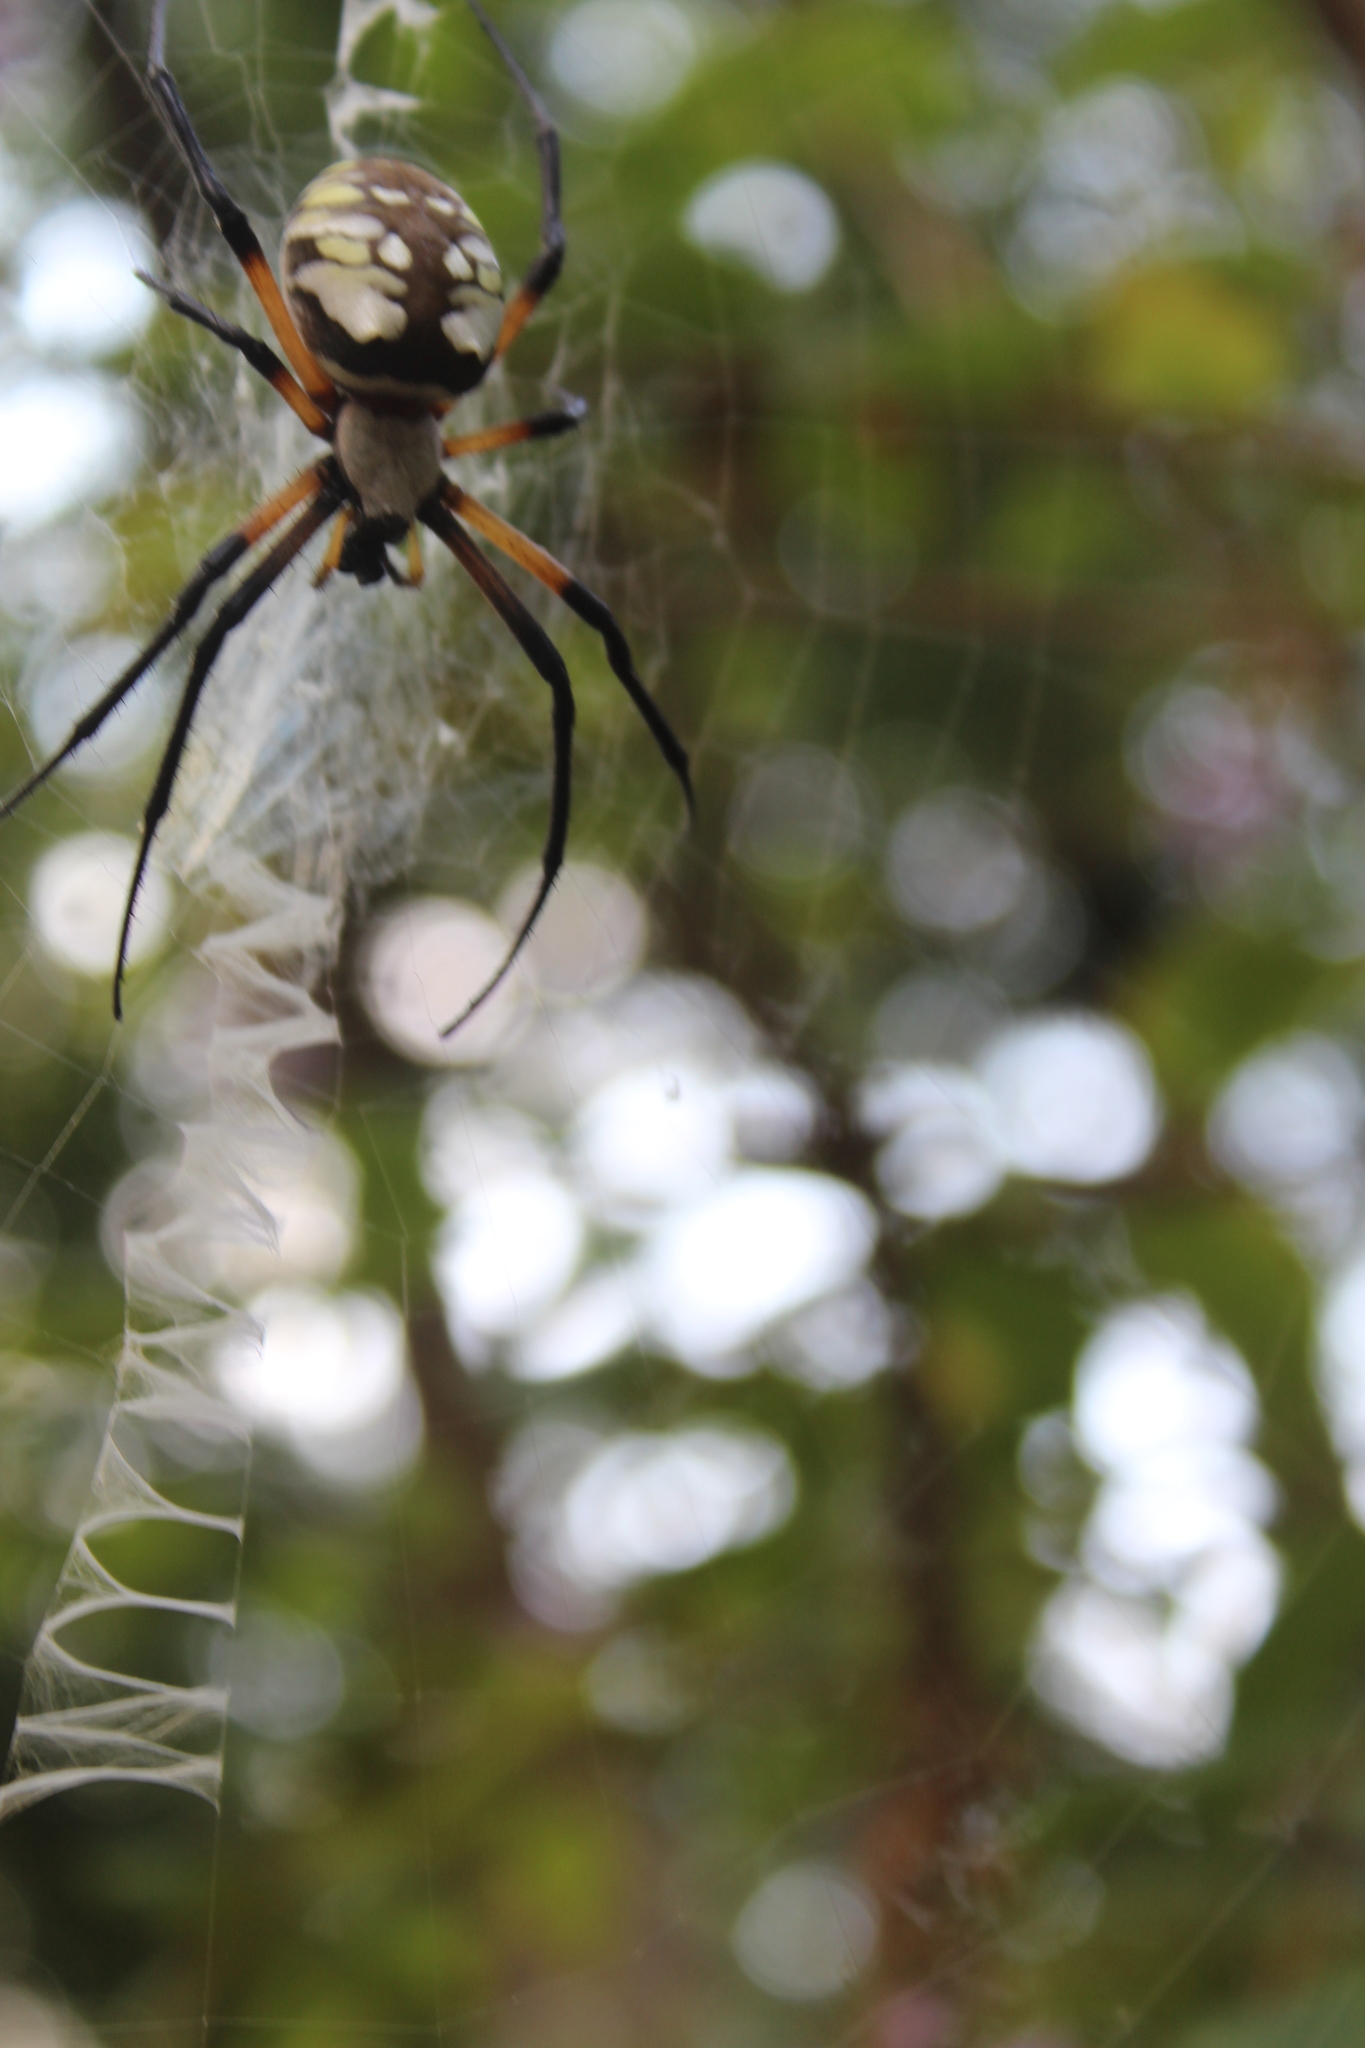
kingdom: Animalia
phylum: Arthropoda
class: Arachnida
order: Araneae
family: Araneidae
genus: Argiope
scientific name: Argiope aurantia
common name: Orb weavers
